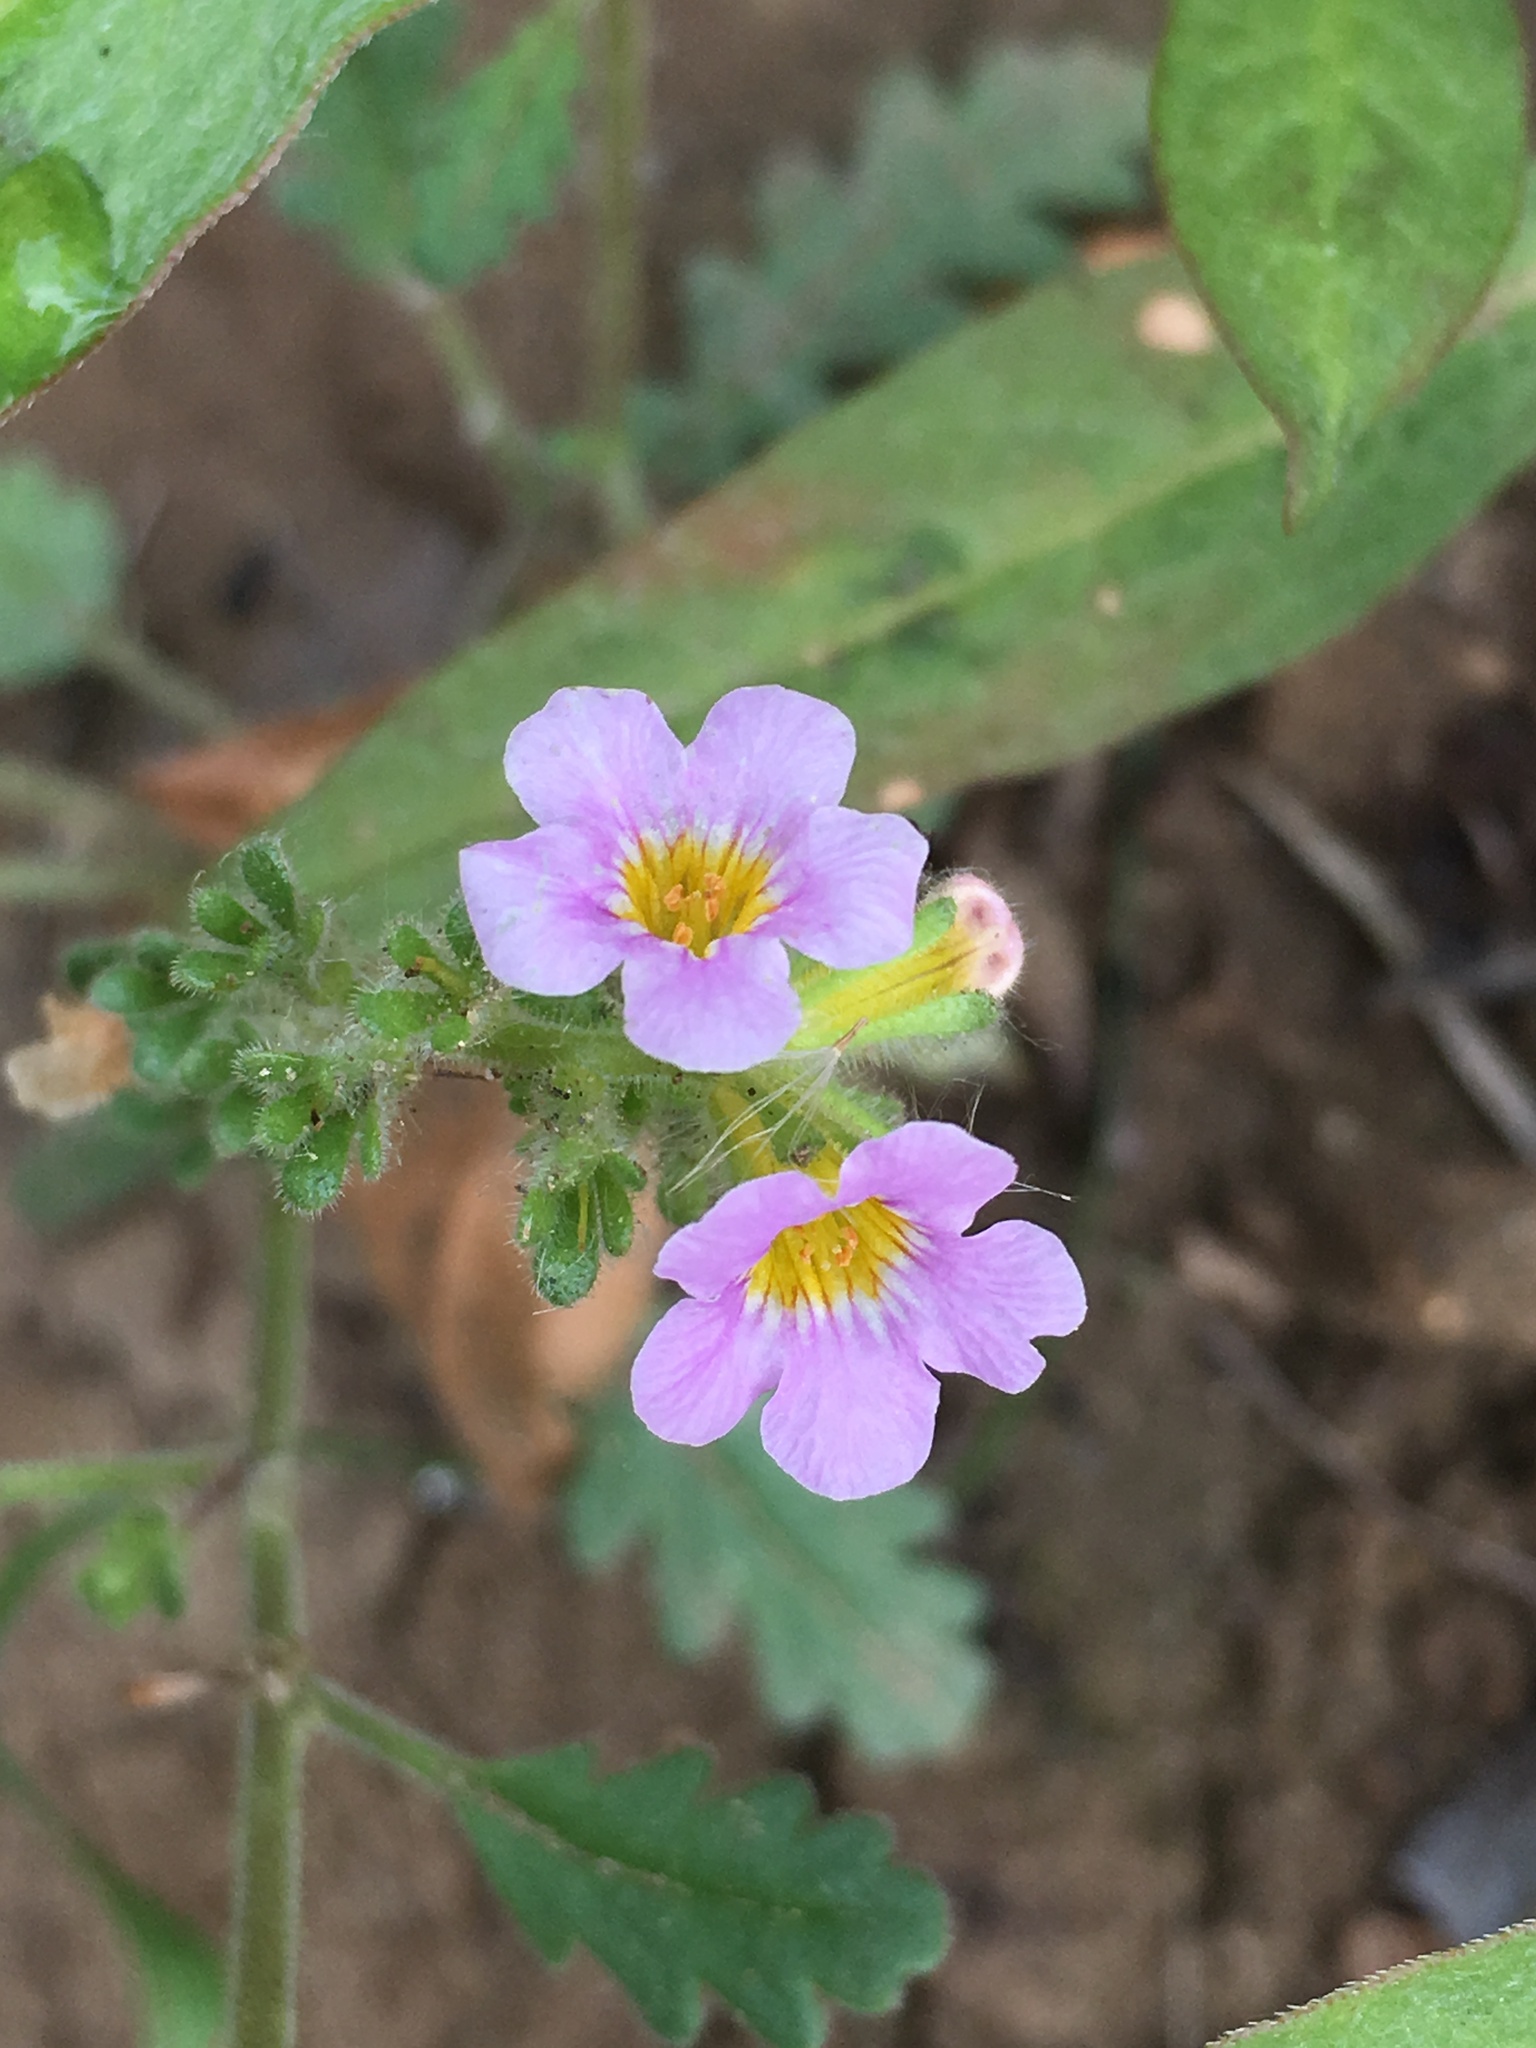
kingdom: Plantae
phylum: Tracheophyta
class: Magnoliopsida
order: Boraginales
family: Hydrophyllaceae
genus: Phacelia
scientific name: Phacelia brachyloba
